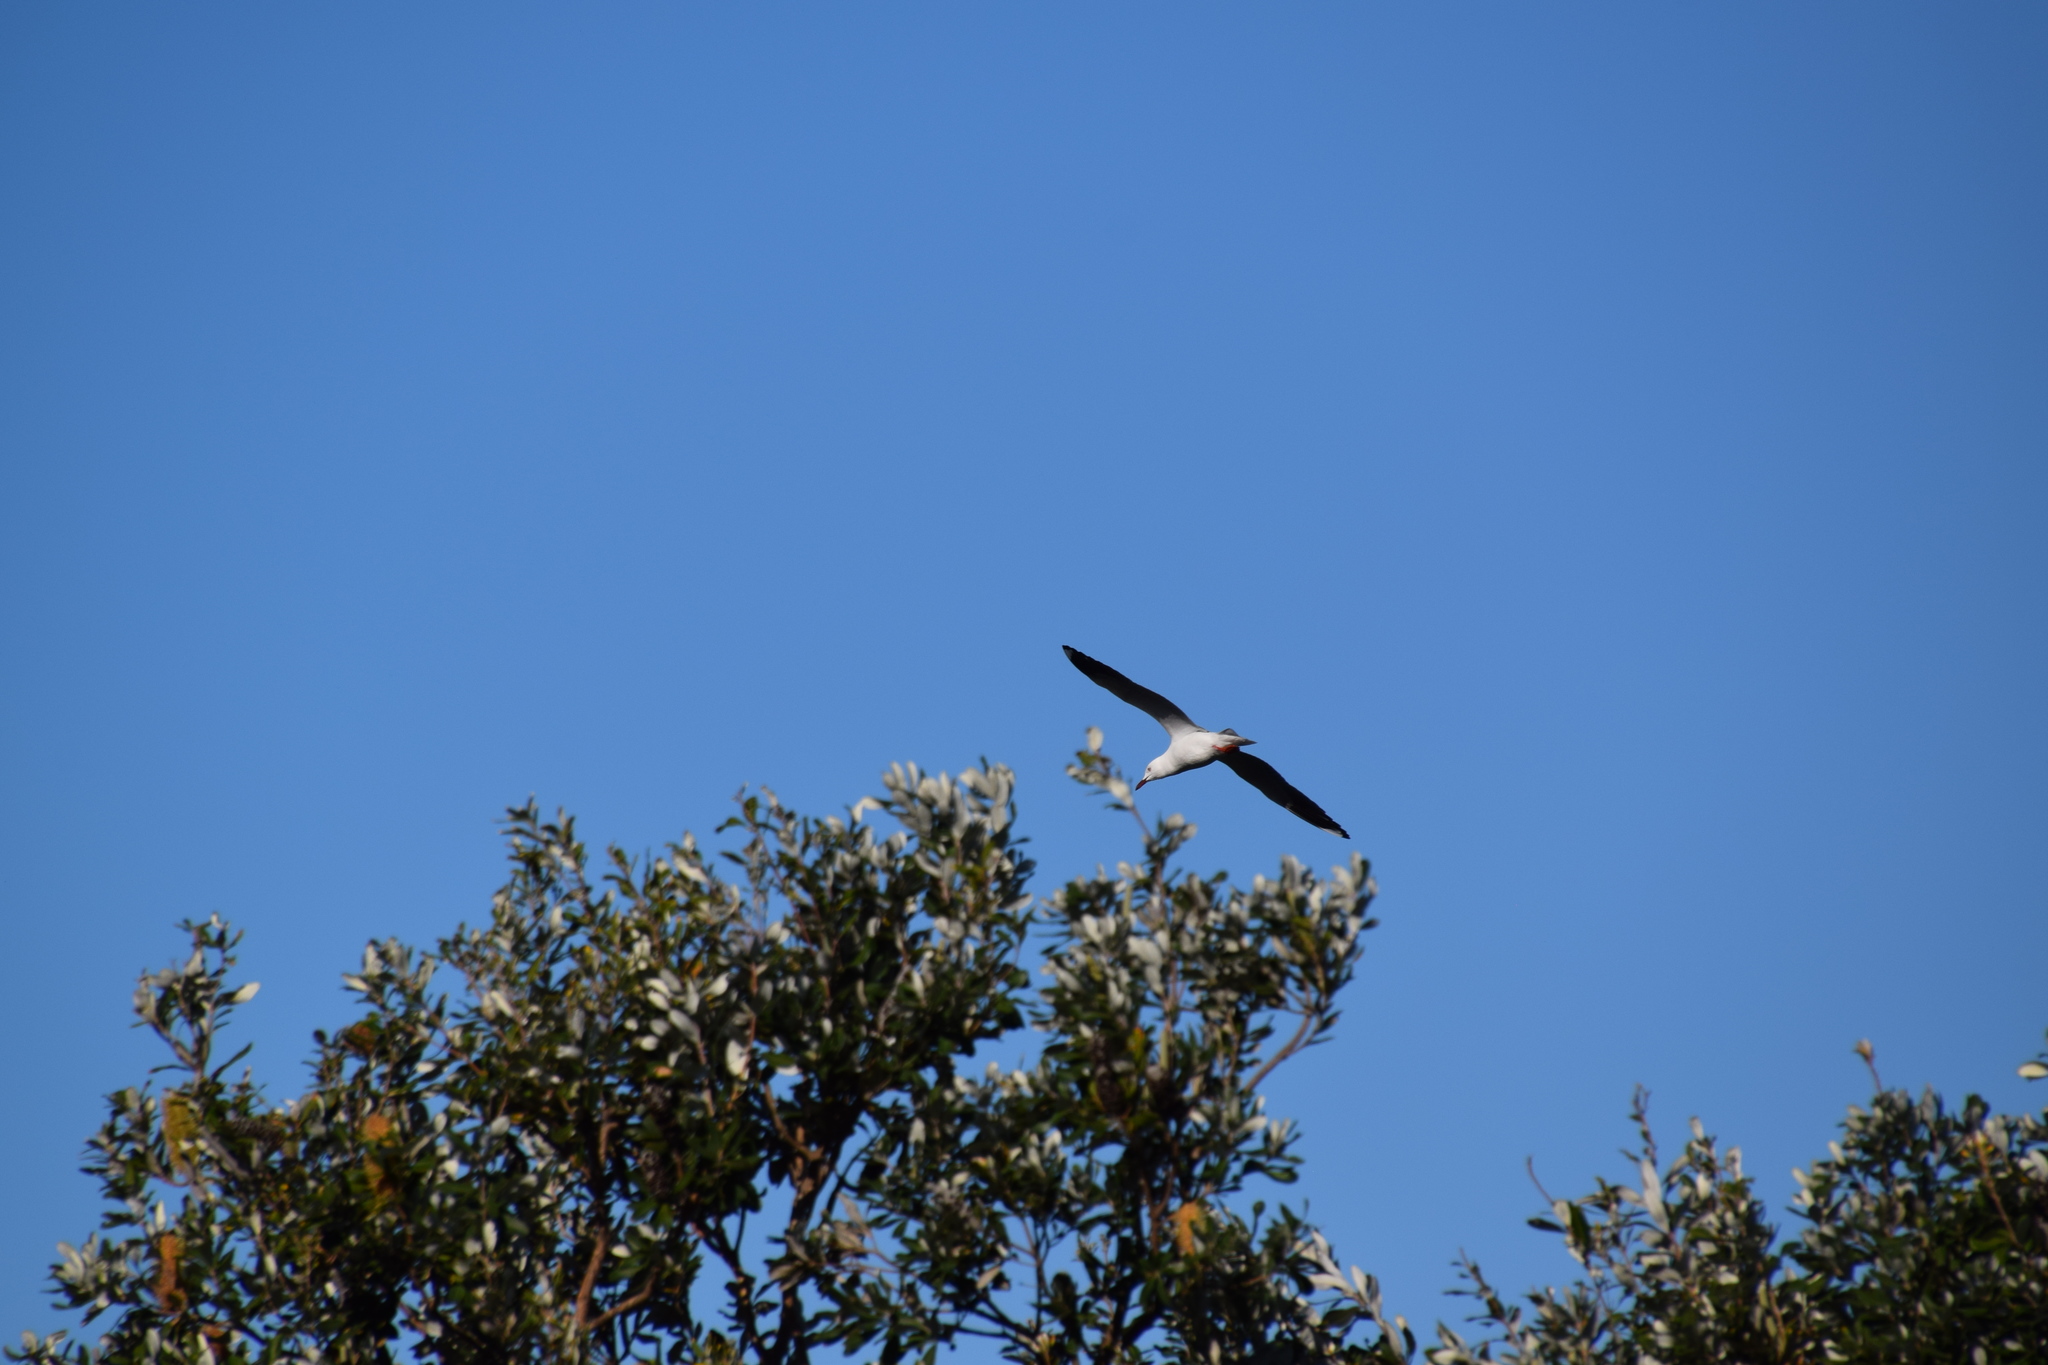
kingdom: Animalia
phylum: Chordata
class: Aves
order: Charadriiformes
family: Laridae
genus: Chroicocephalus
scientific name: Chroicocephalus novaehollandiae
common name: Silver gull
